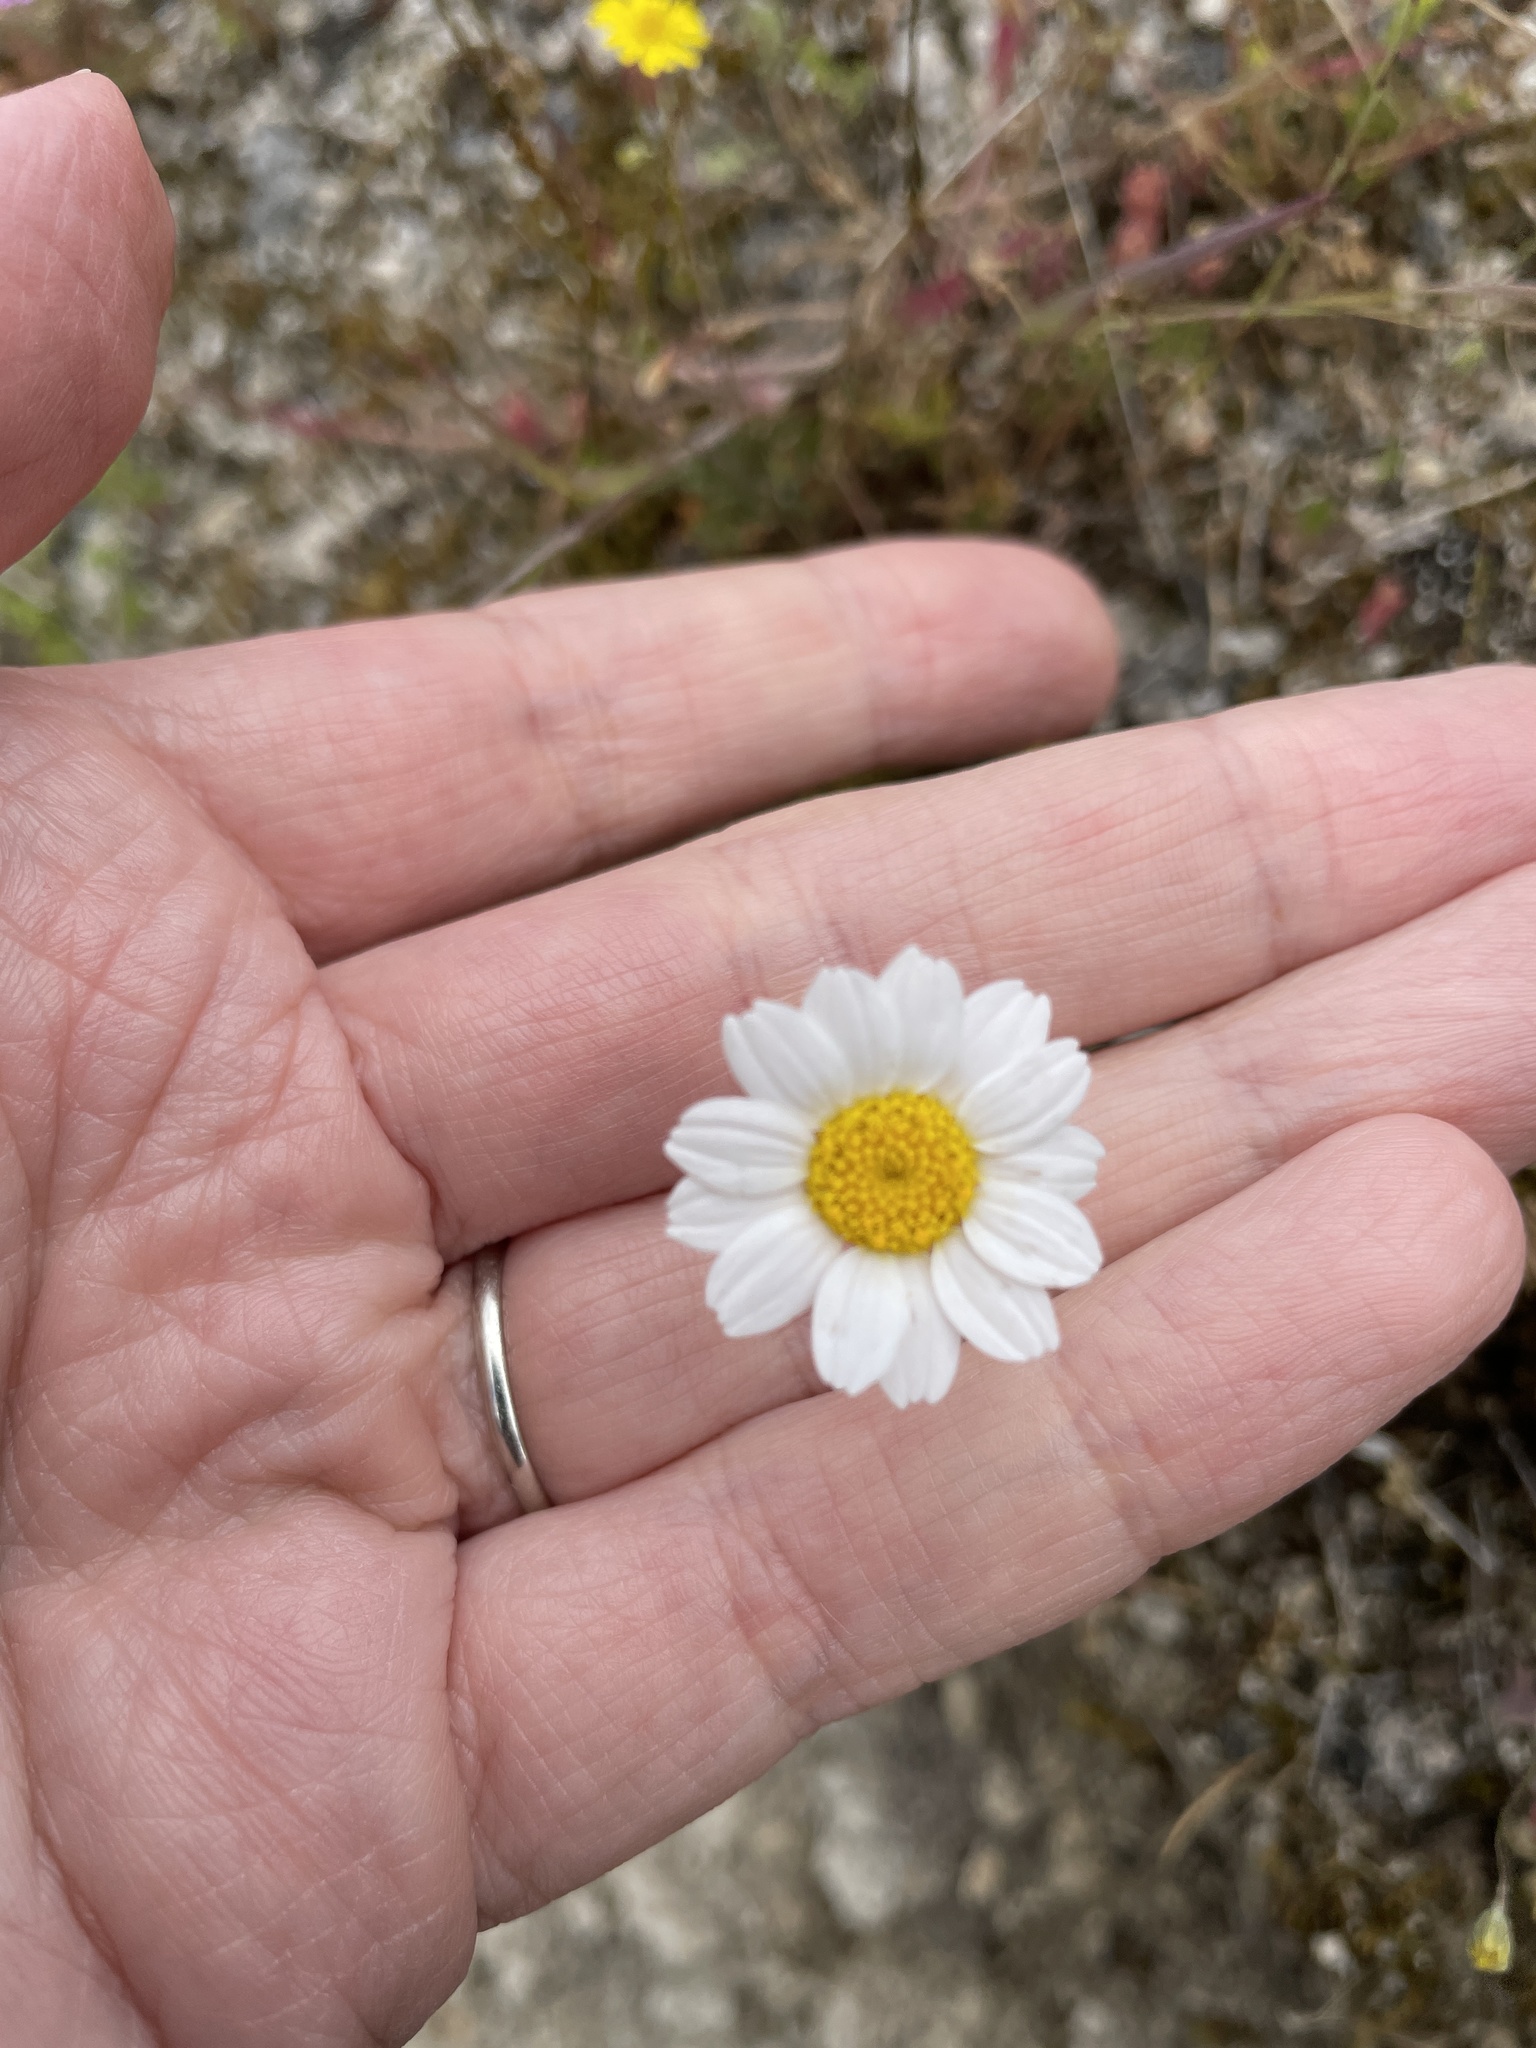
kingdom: Plantae
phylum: Tracheophyta
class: Magnoliopsida
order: Asterales
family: Asteraceae
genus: Anthemis
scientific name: Anthemis chia
